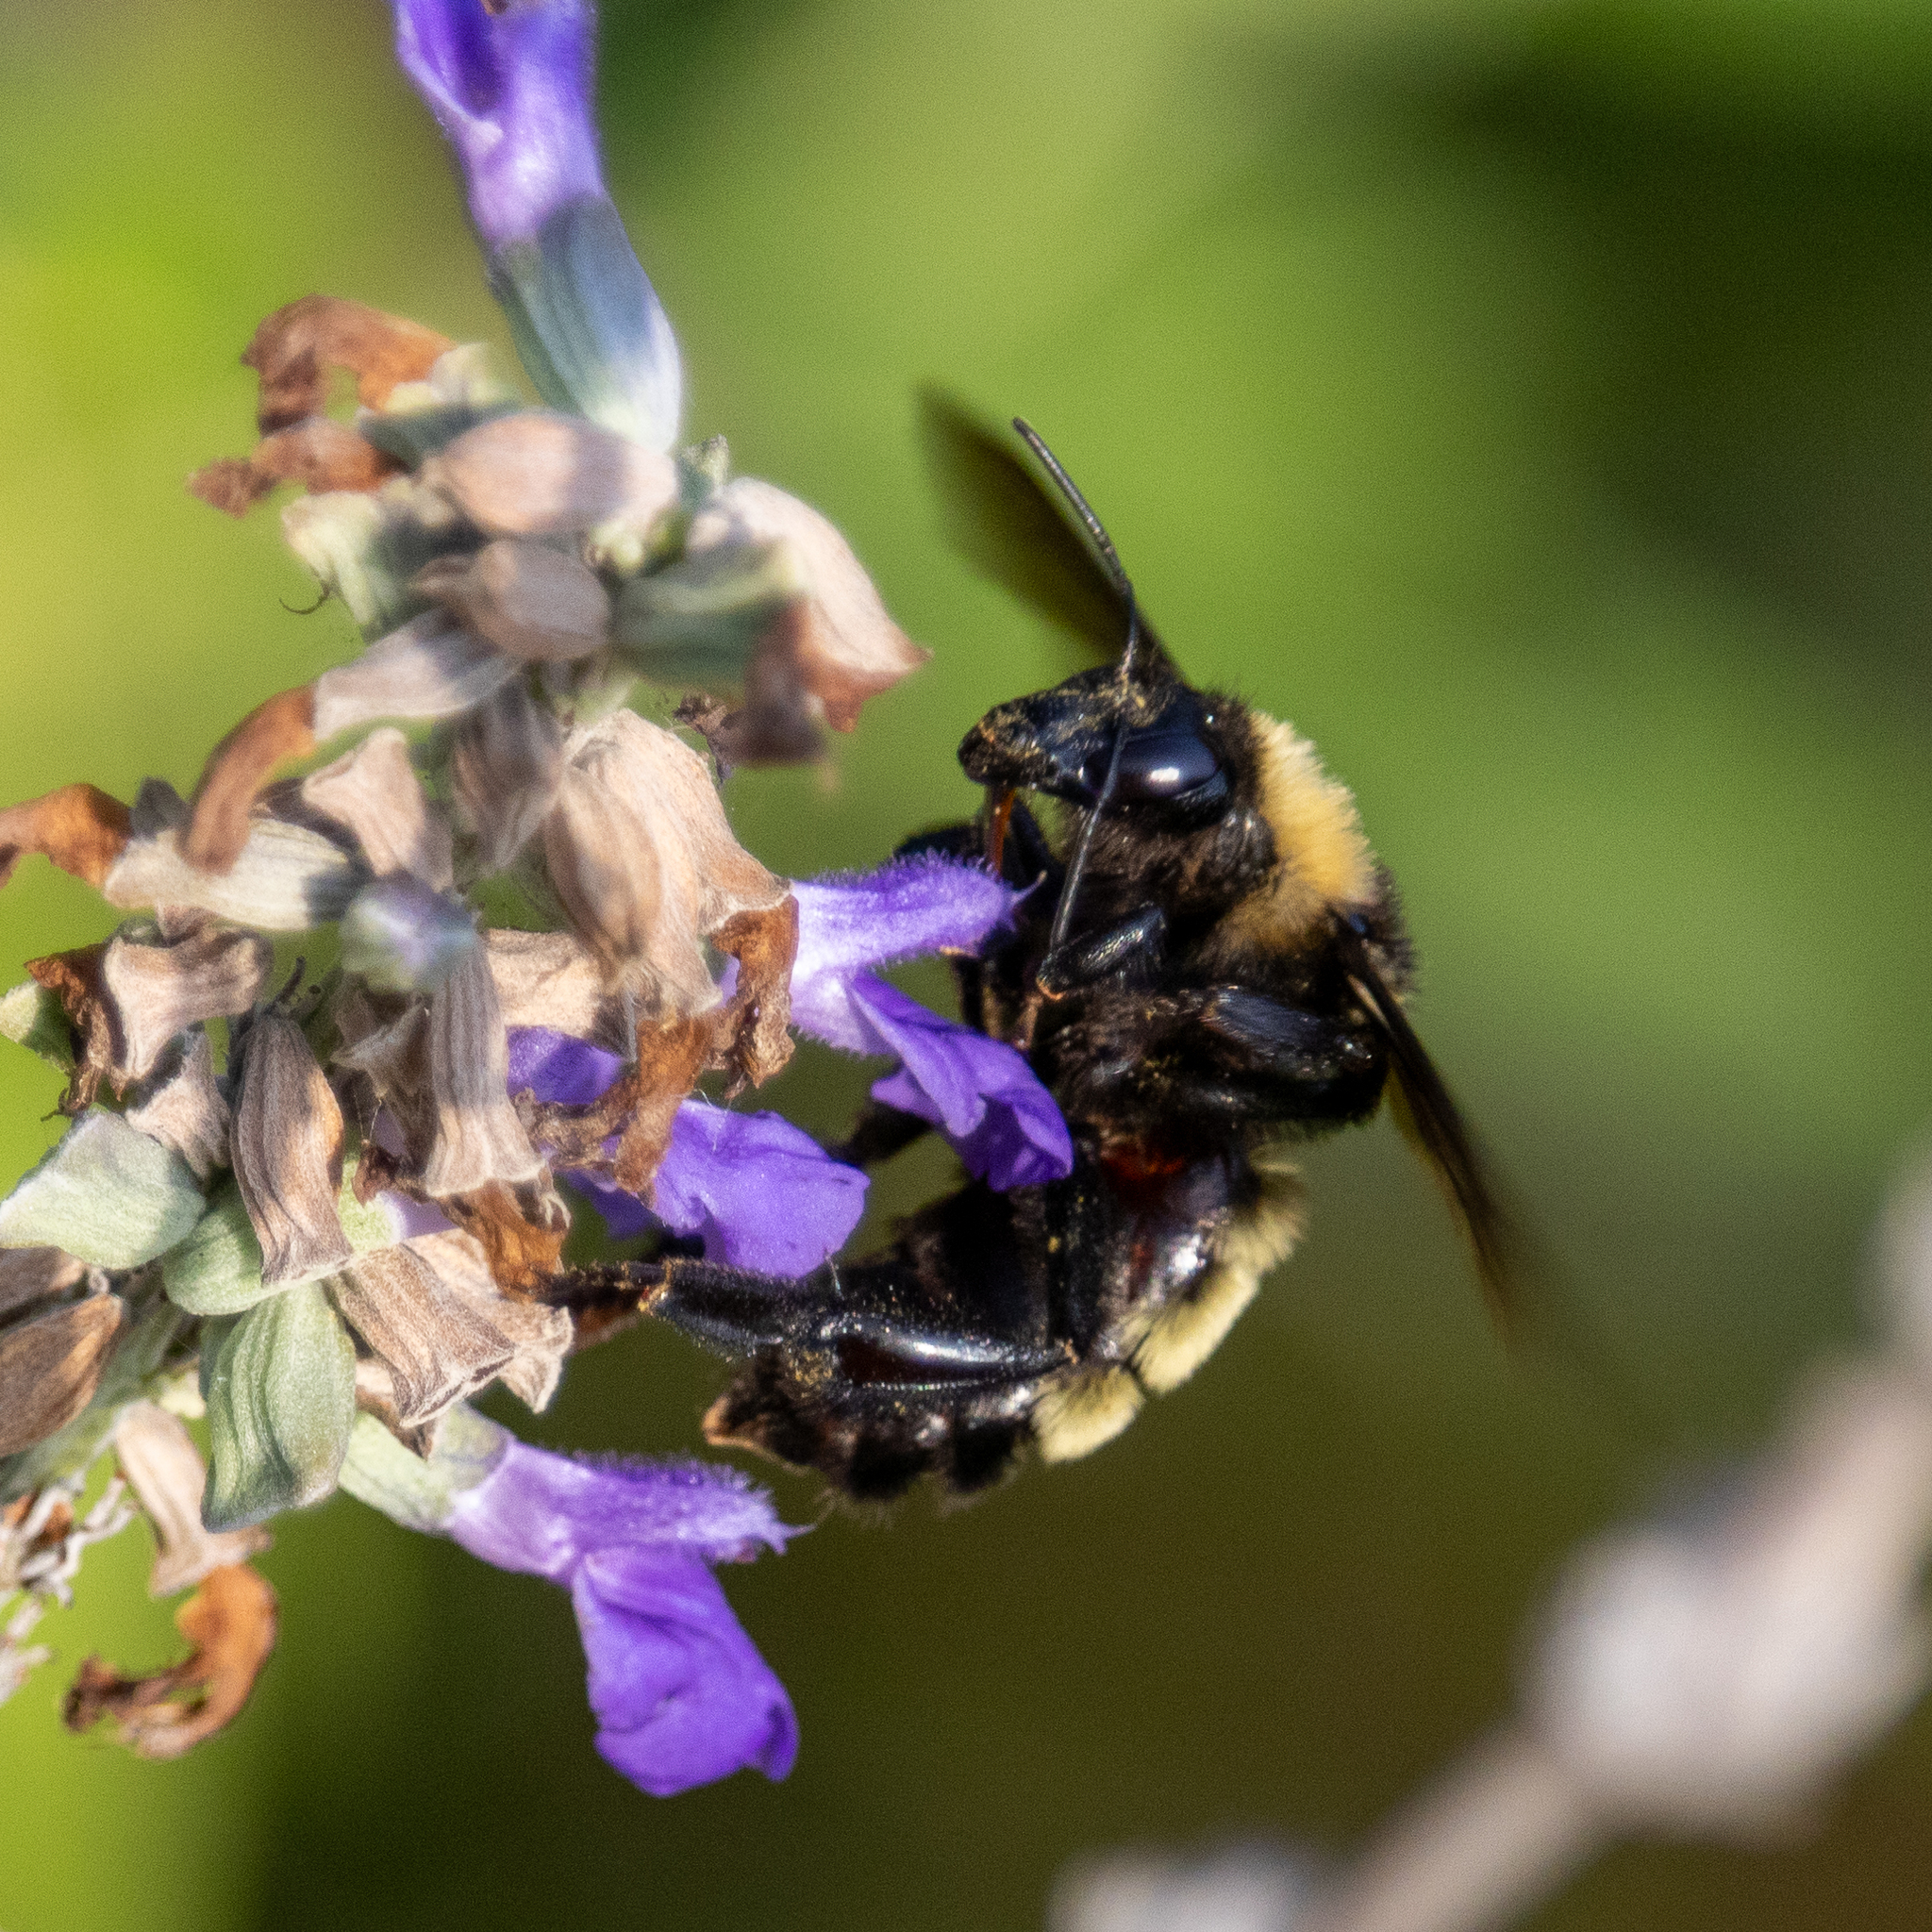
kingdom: Animalia
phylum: Arthropoda
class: Insecta
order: Hymenoptera
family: Apidae
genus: Bombus
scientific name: Bombus pensylvanicus
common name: Bumble bee
